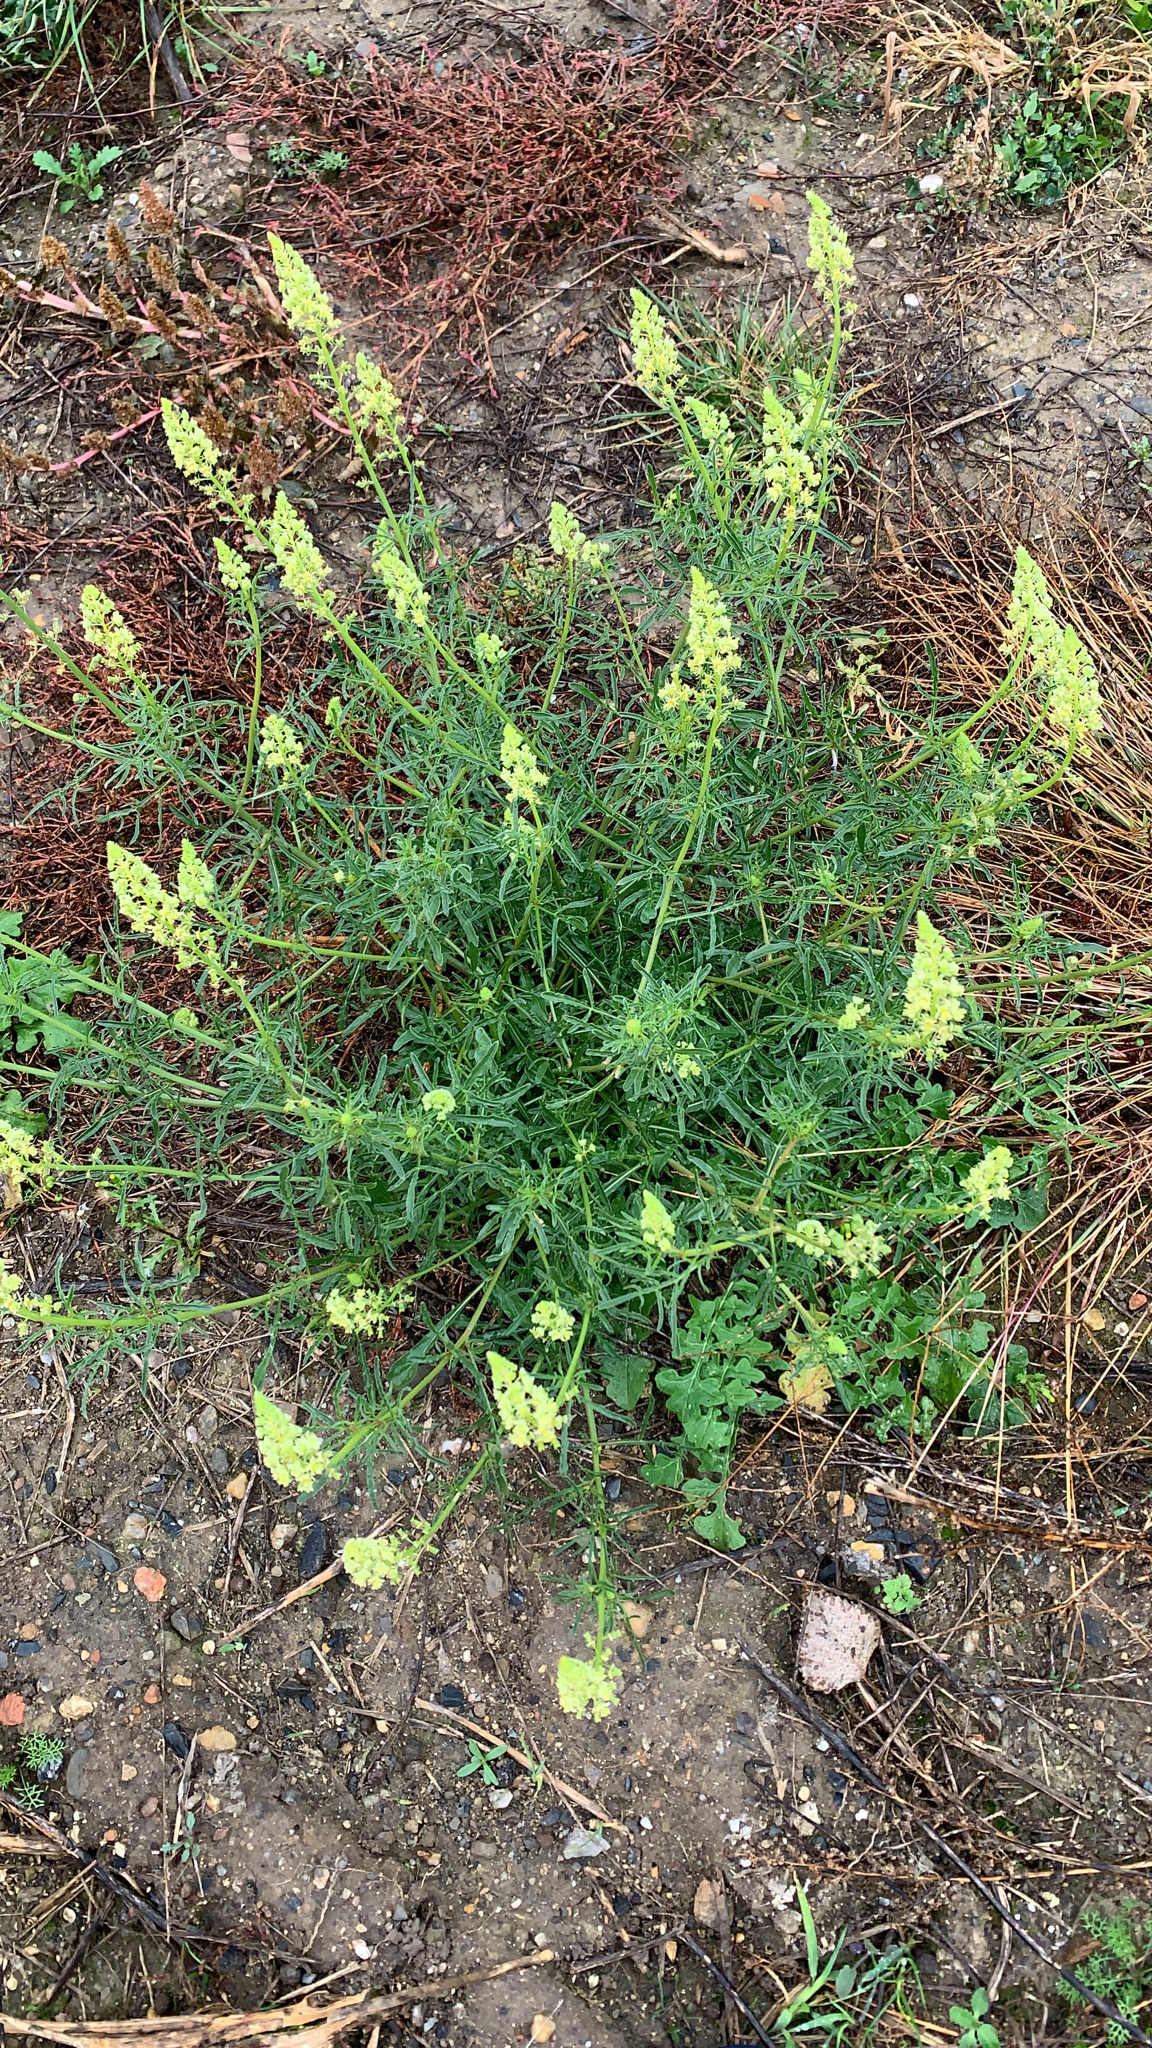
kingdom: Plantae
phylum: Tracheophyta
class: Magnoliopsida
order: Brassicales
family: Resedaceae
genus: Reseda
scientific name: Reseda lutea
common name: Wild mignonette
